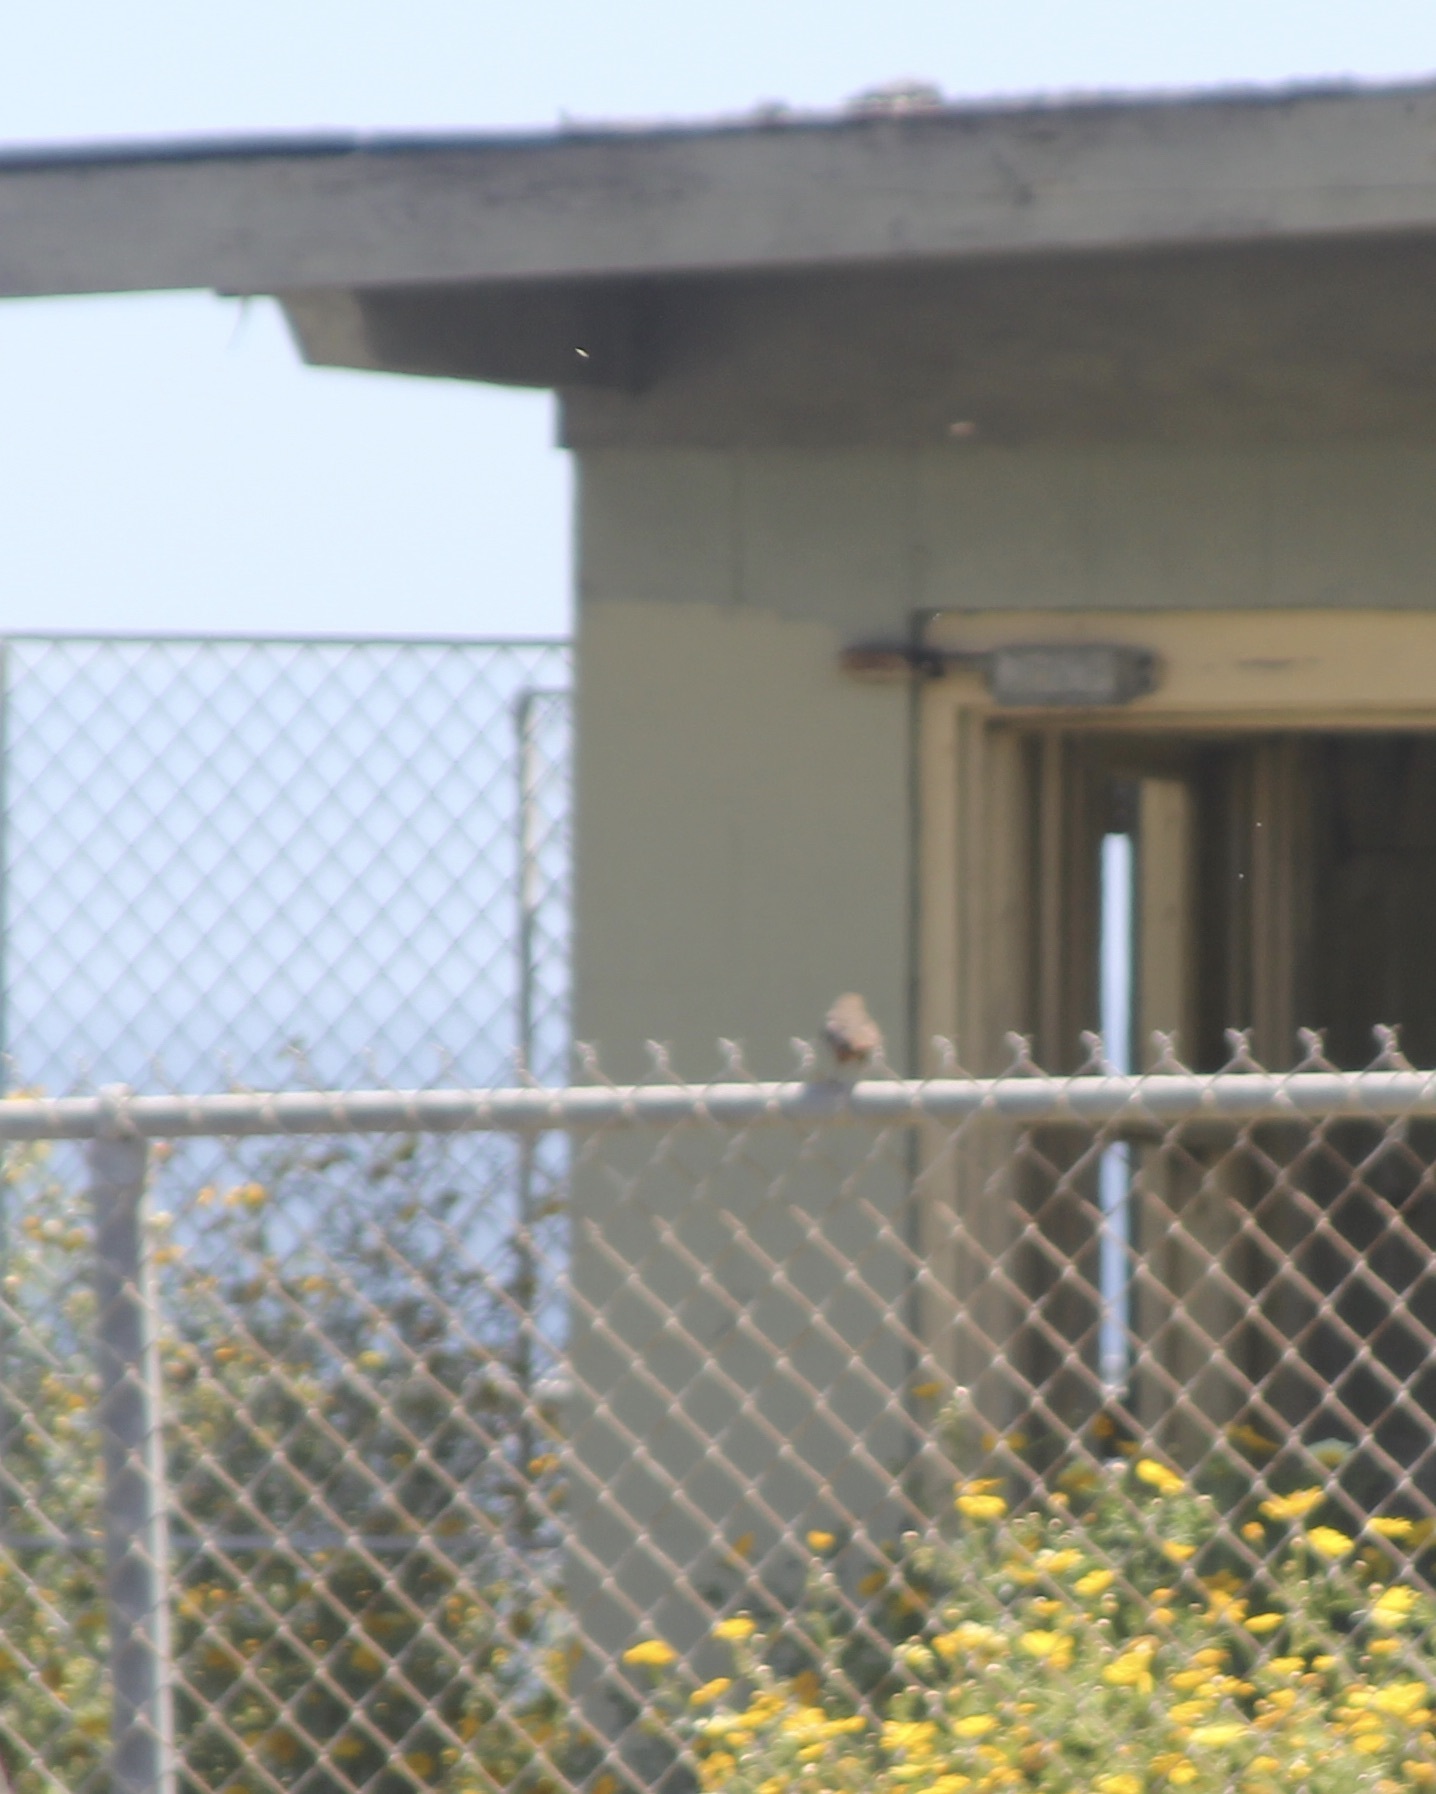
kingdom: Animalia
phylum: Chordata
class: Aves
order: Passeriformes
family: Passerellidae
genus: Melozone
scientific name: Melozone crissalis
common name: California towhee
